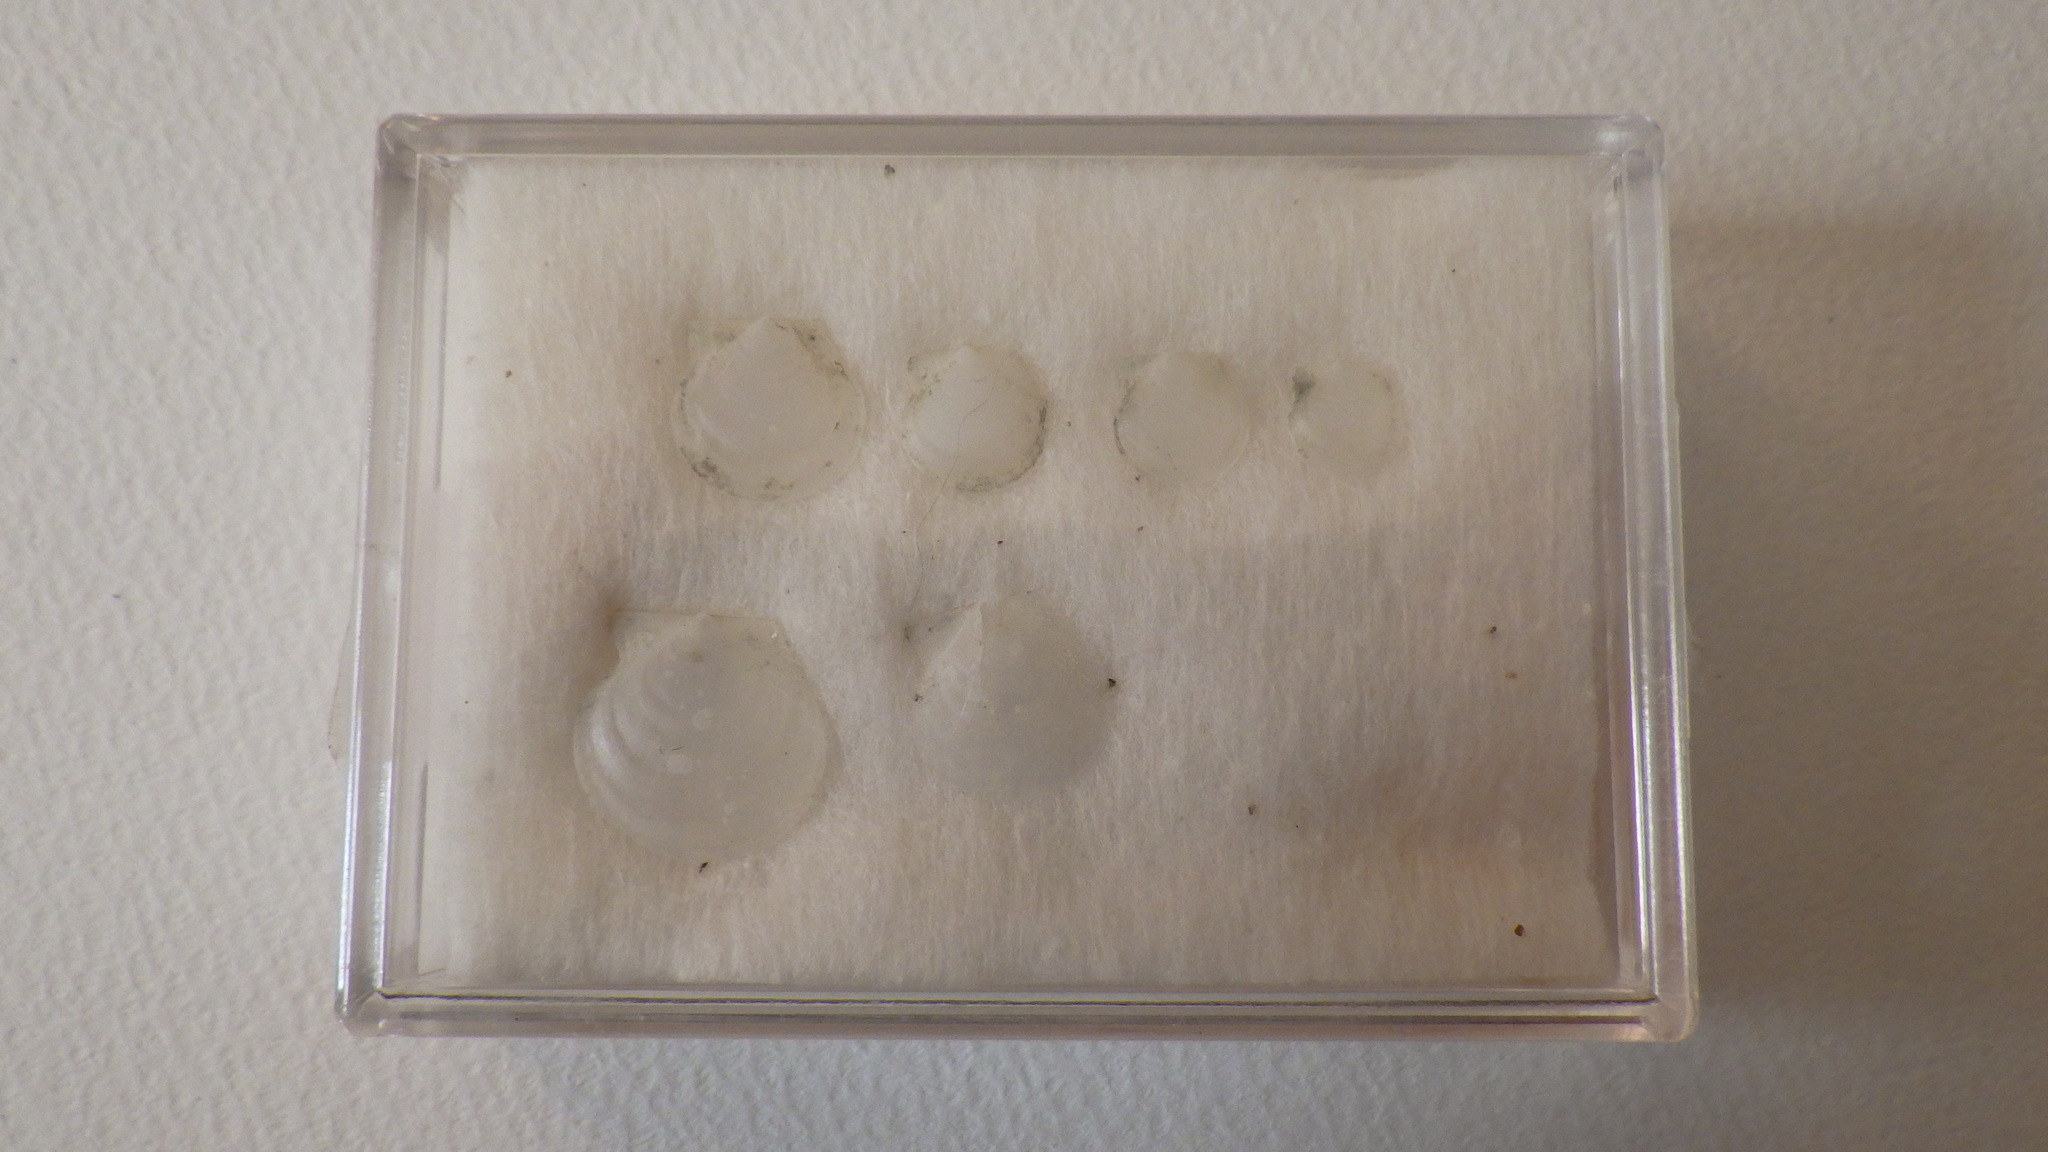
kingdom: Animalia
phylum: Mollusca
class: Bivalvia
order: Pectinida
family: Pectinidae
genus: Delectopecten
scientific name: Delectopecten macrocheiricola
